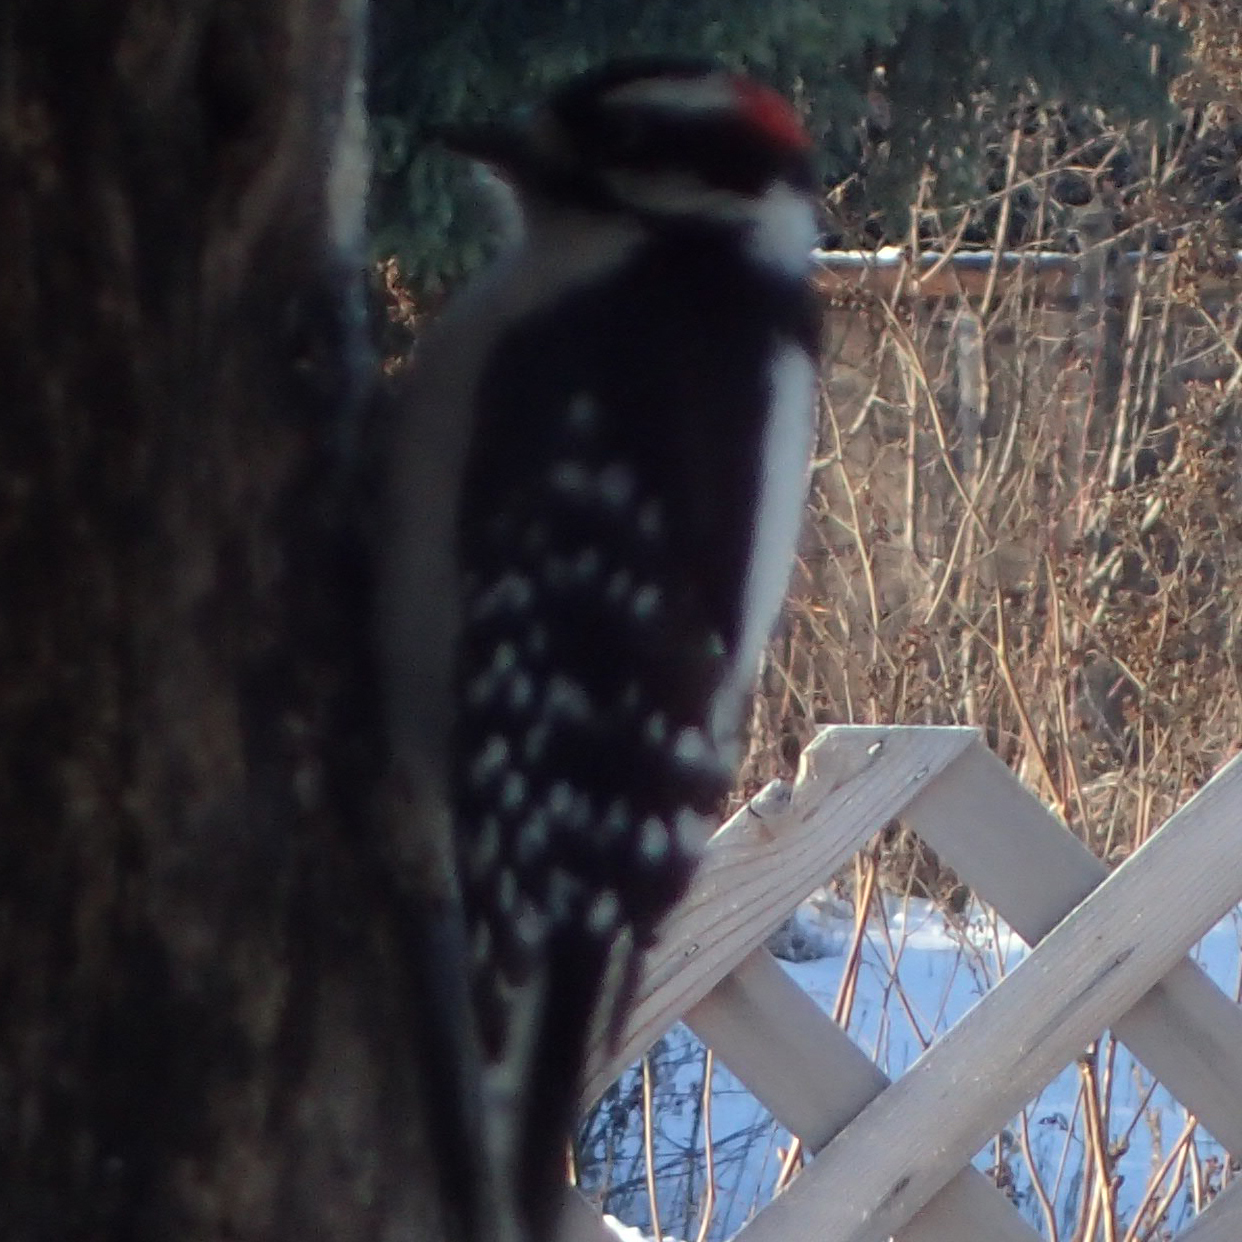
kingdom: Animalia
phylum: Chordata
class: Aves
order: Piciformes
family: Picidae
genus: Dryobates
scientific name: Dryobates pubescens
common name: Downy woodpecker
